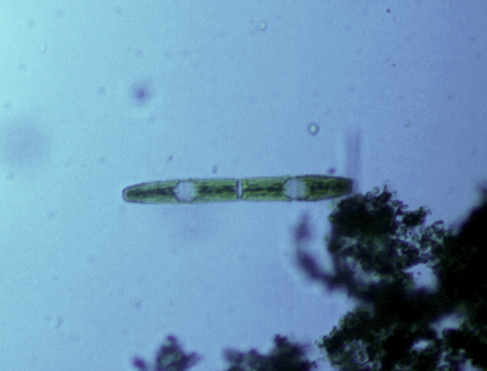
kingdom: Plantae
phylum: Charophyta
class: Zygnematophyceae
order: Zygnematales
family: Peniaceae
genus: Penium
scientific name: Penium margaritaceum
